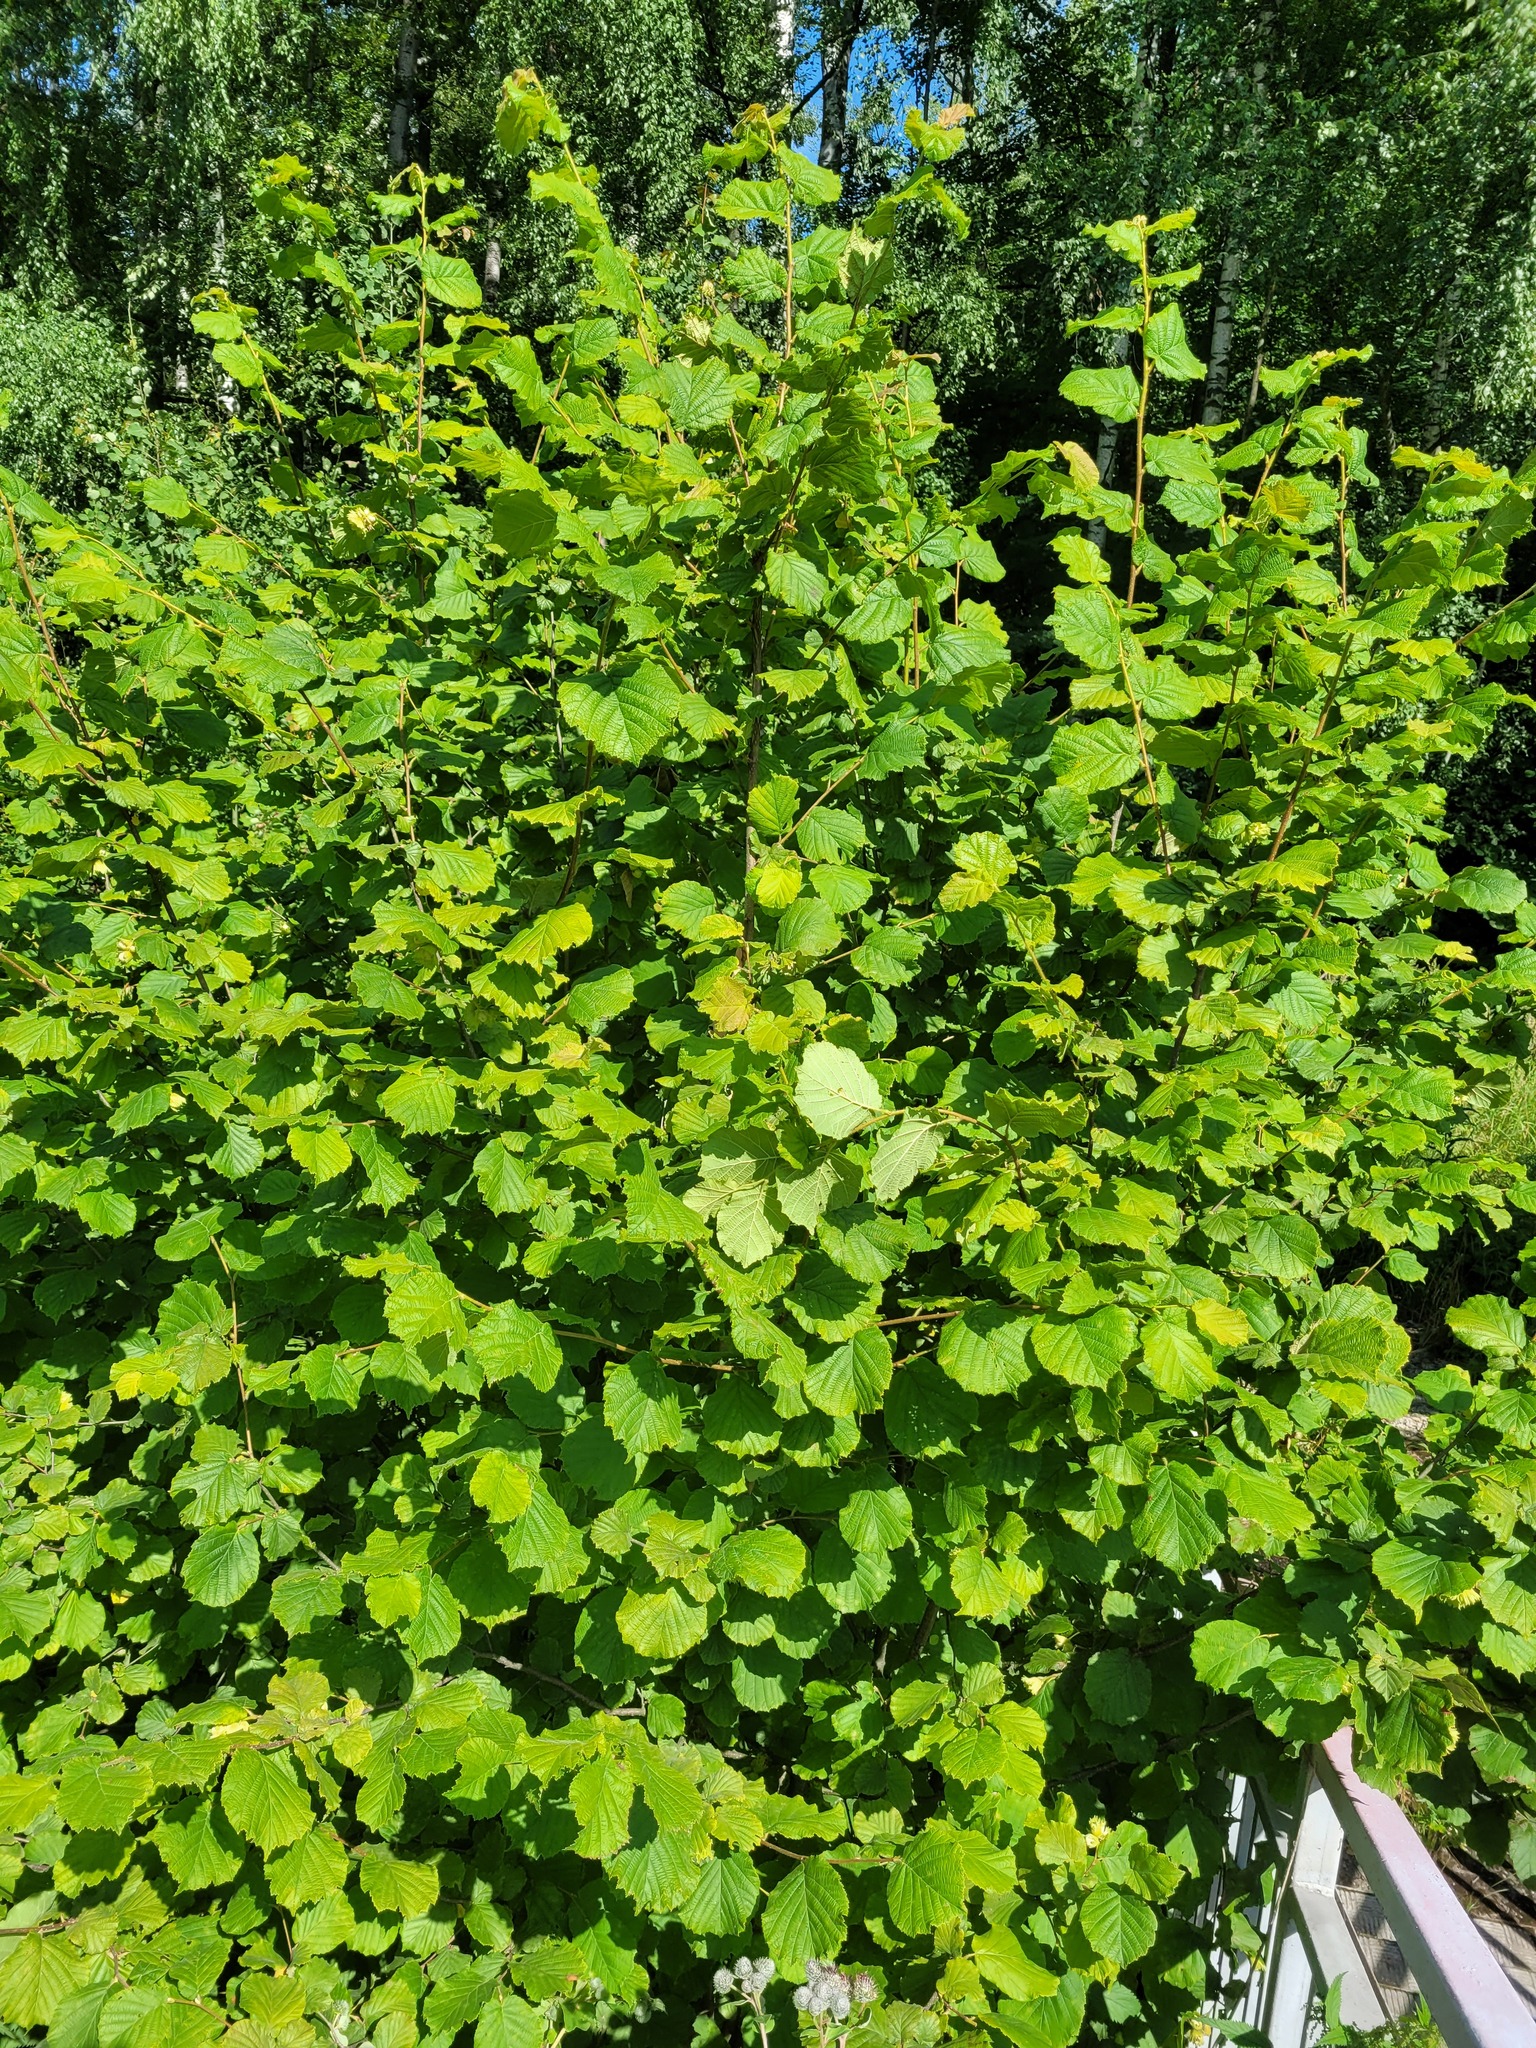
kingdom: Plantae
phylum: Tracheophyta
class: Magnoliopsida
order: Fagales
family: Betulaceae
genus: Corylus
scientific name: Corylus avellana
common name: European hazel
